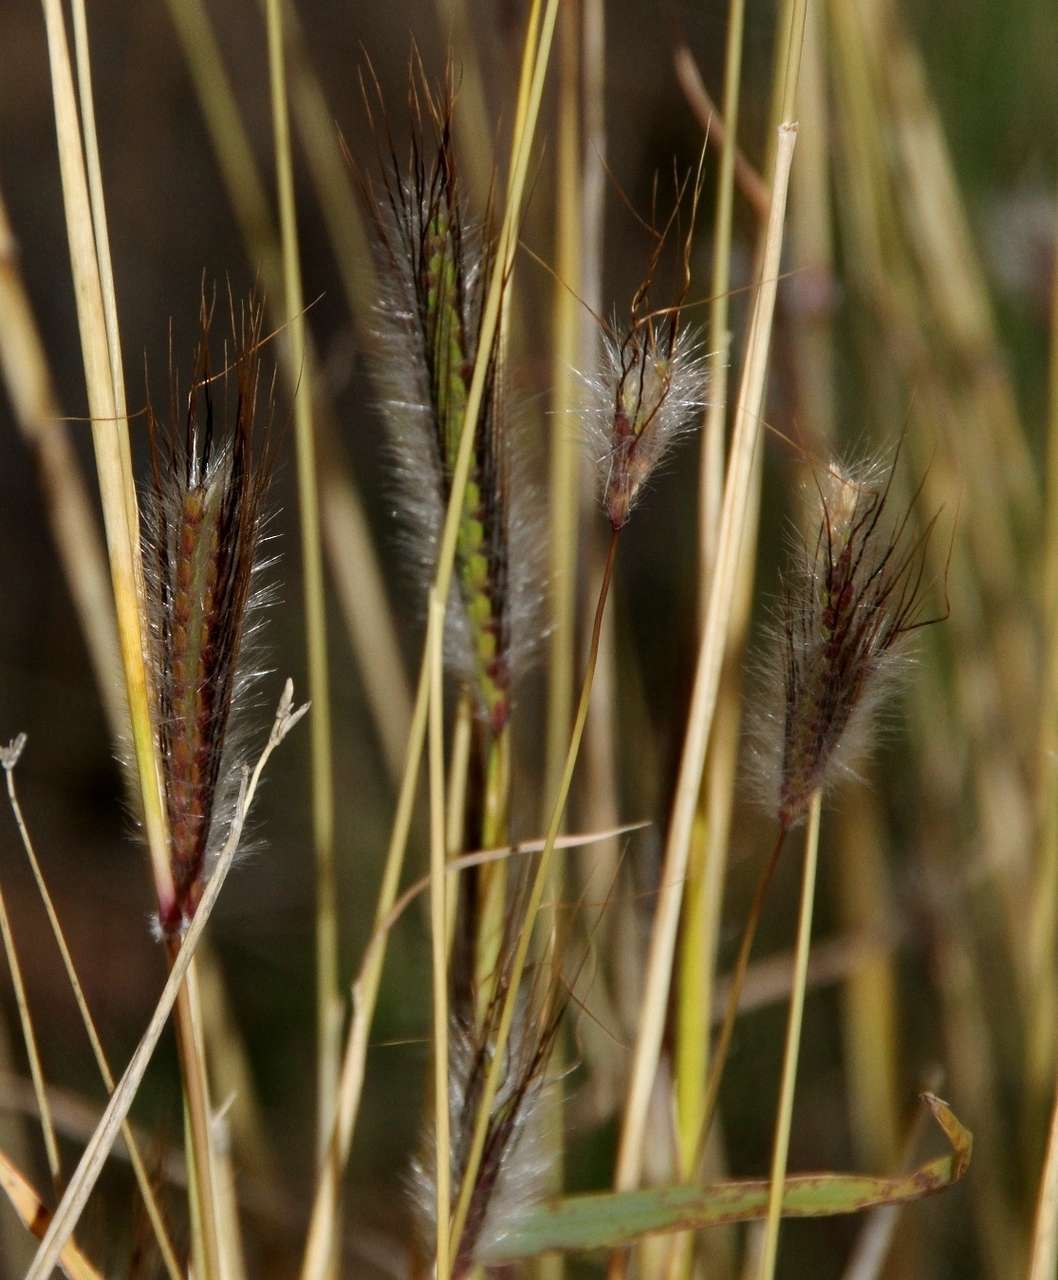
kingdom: Plantae
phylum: Tracheophyta
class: Liliopsida
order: Poales
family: Poaceae
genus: Dichanthium
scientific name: Dichanthium sericeum
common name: Silky bluestem
